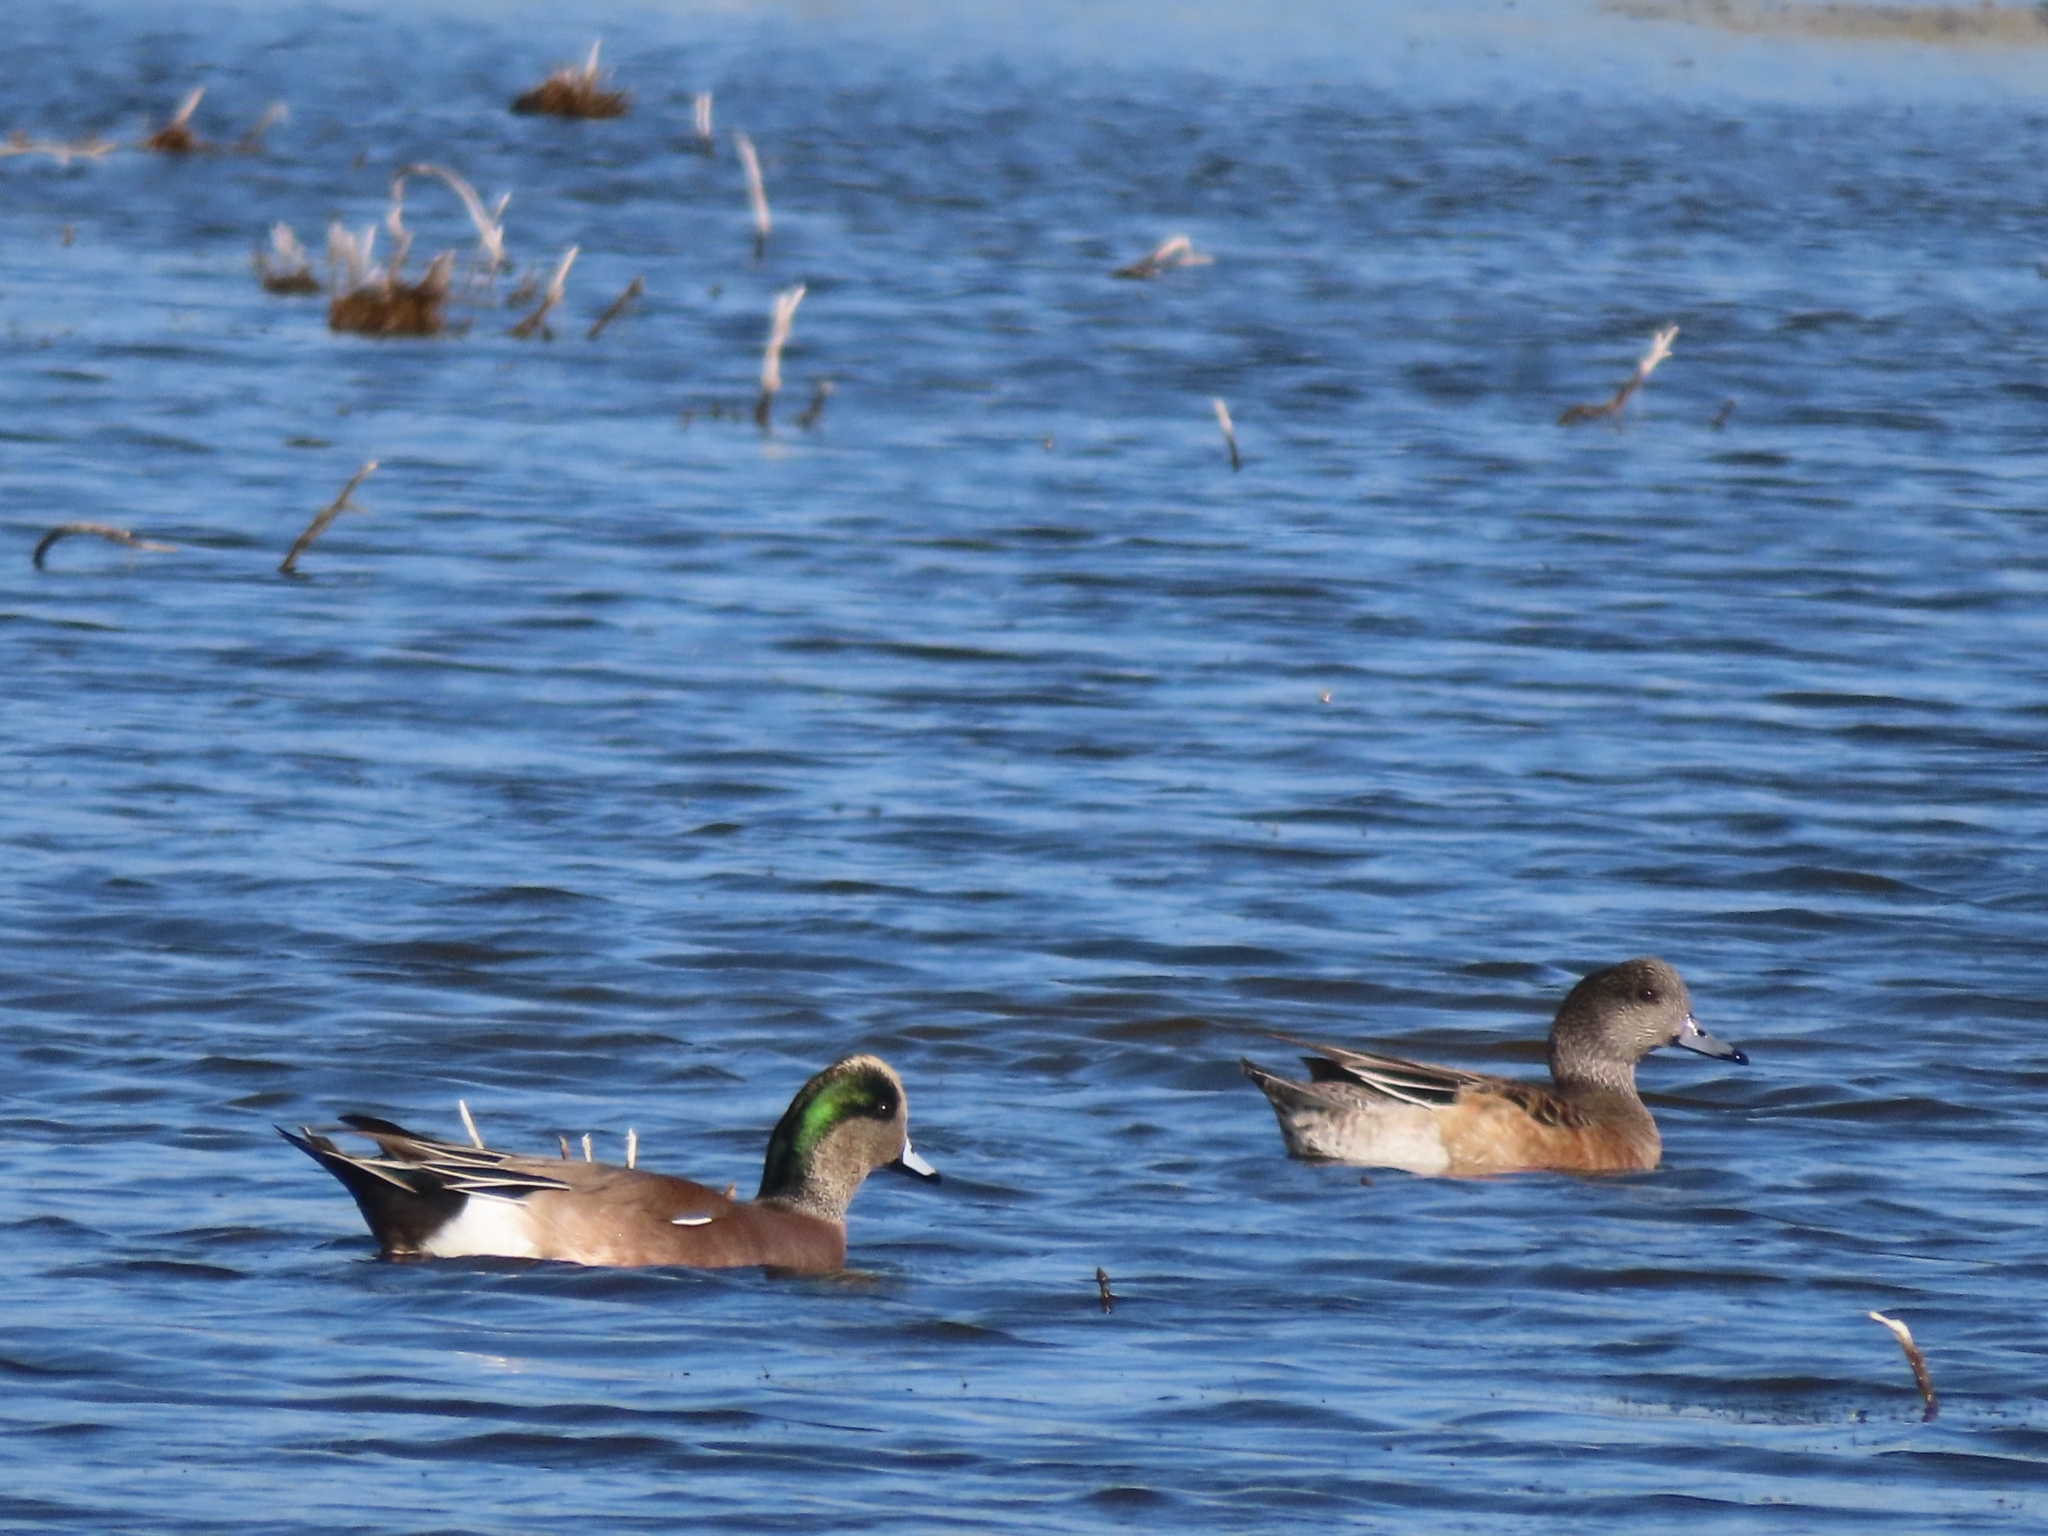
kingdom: Animalia
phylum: Chordata
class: Aves
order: Anseriformes
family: Anatidae
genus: Mareca
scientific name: Mareca americana
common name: American wigeon
